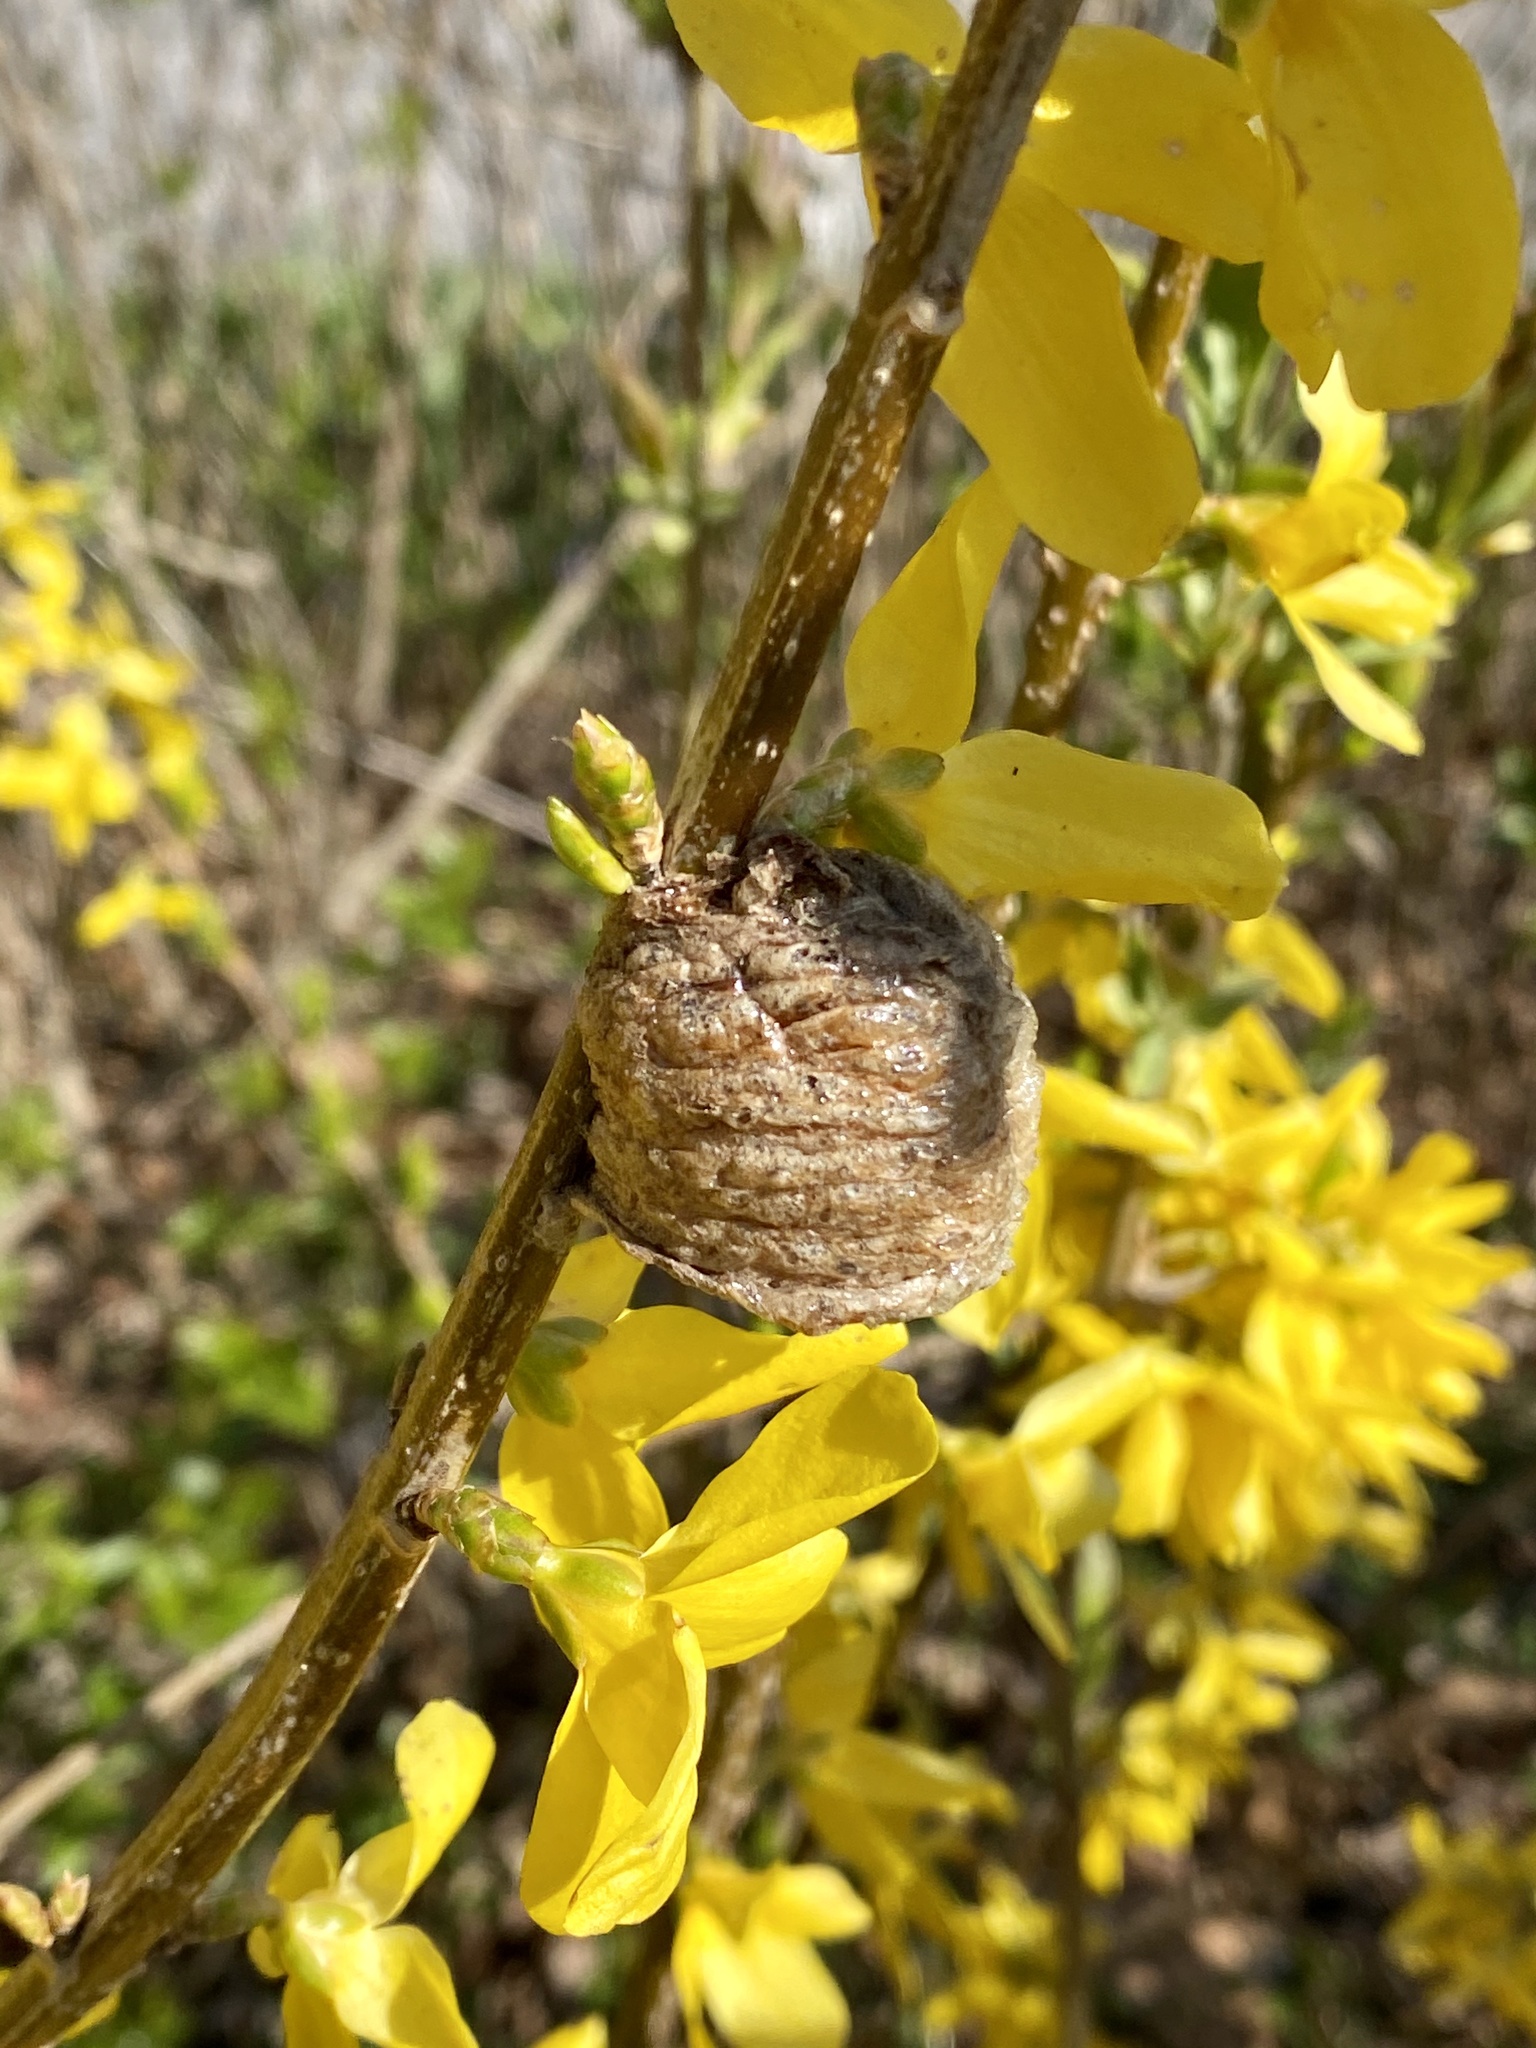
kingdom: Animalia
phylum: Arthropoda
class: Insecta
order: Mantodea
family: Mantidae
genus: Tenodera
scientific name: Tenodera sinensis
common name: Chinese mantis
